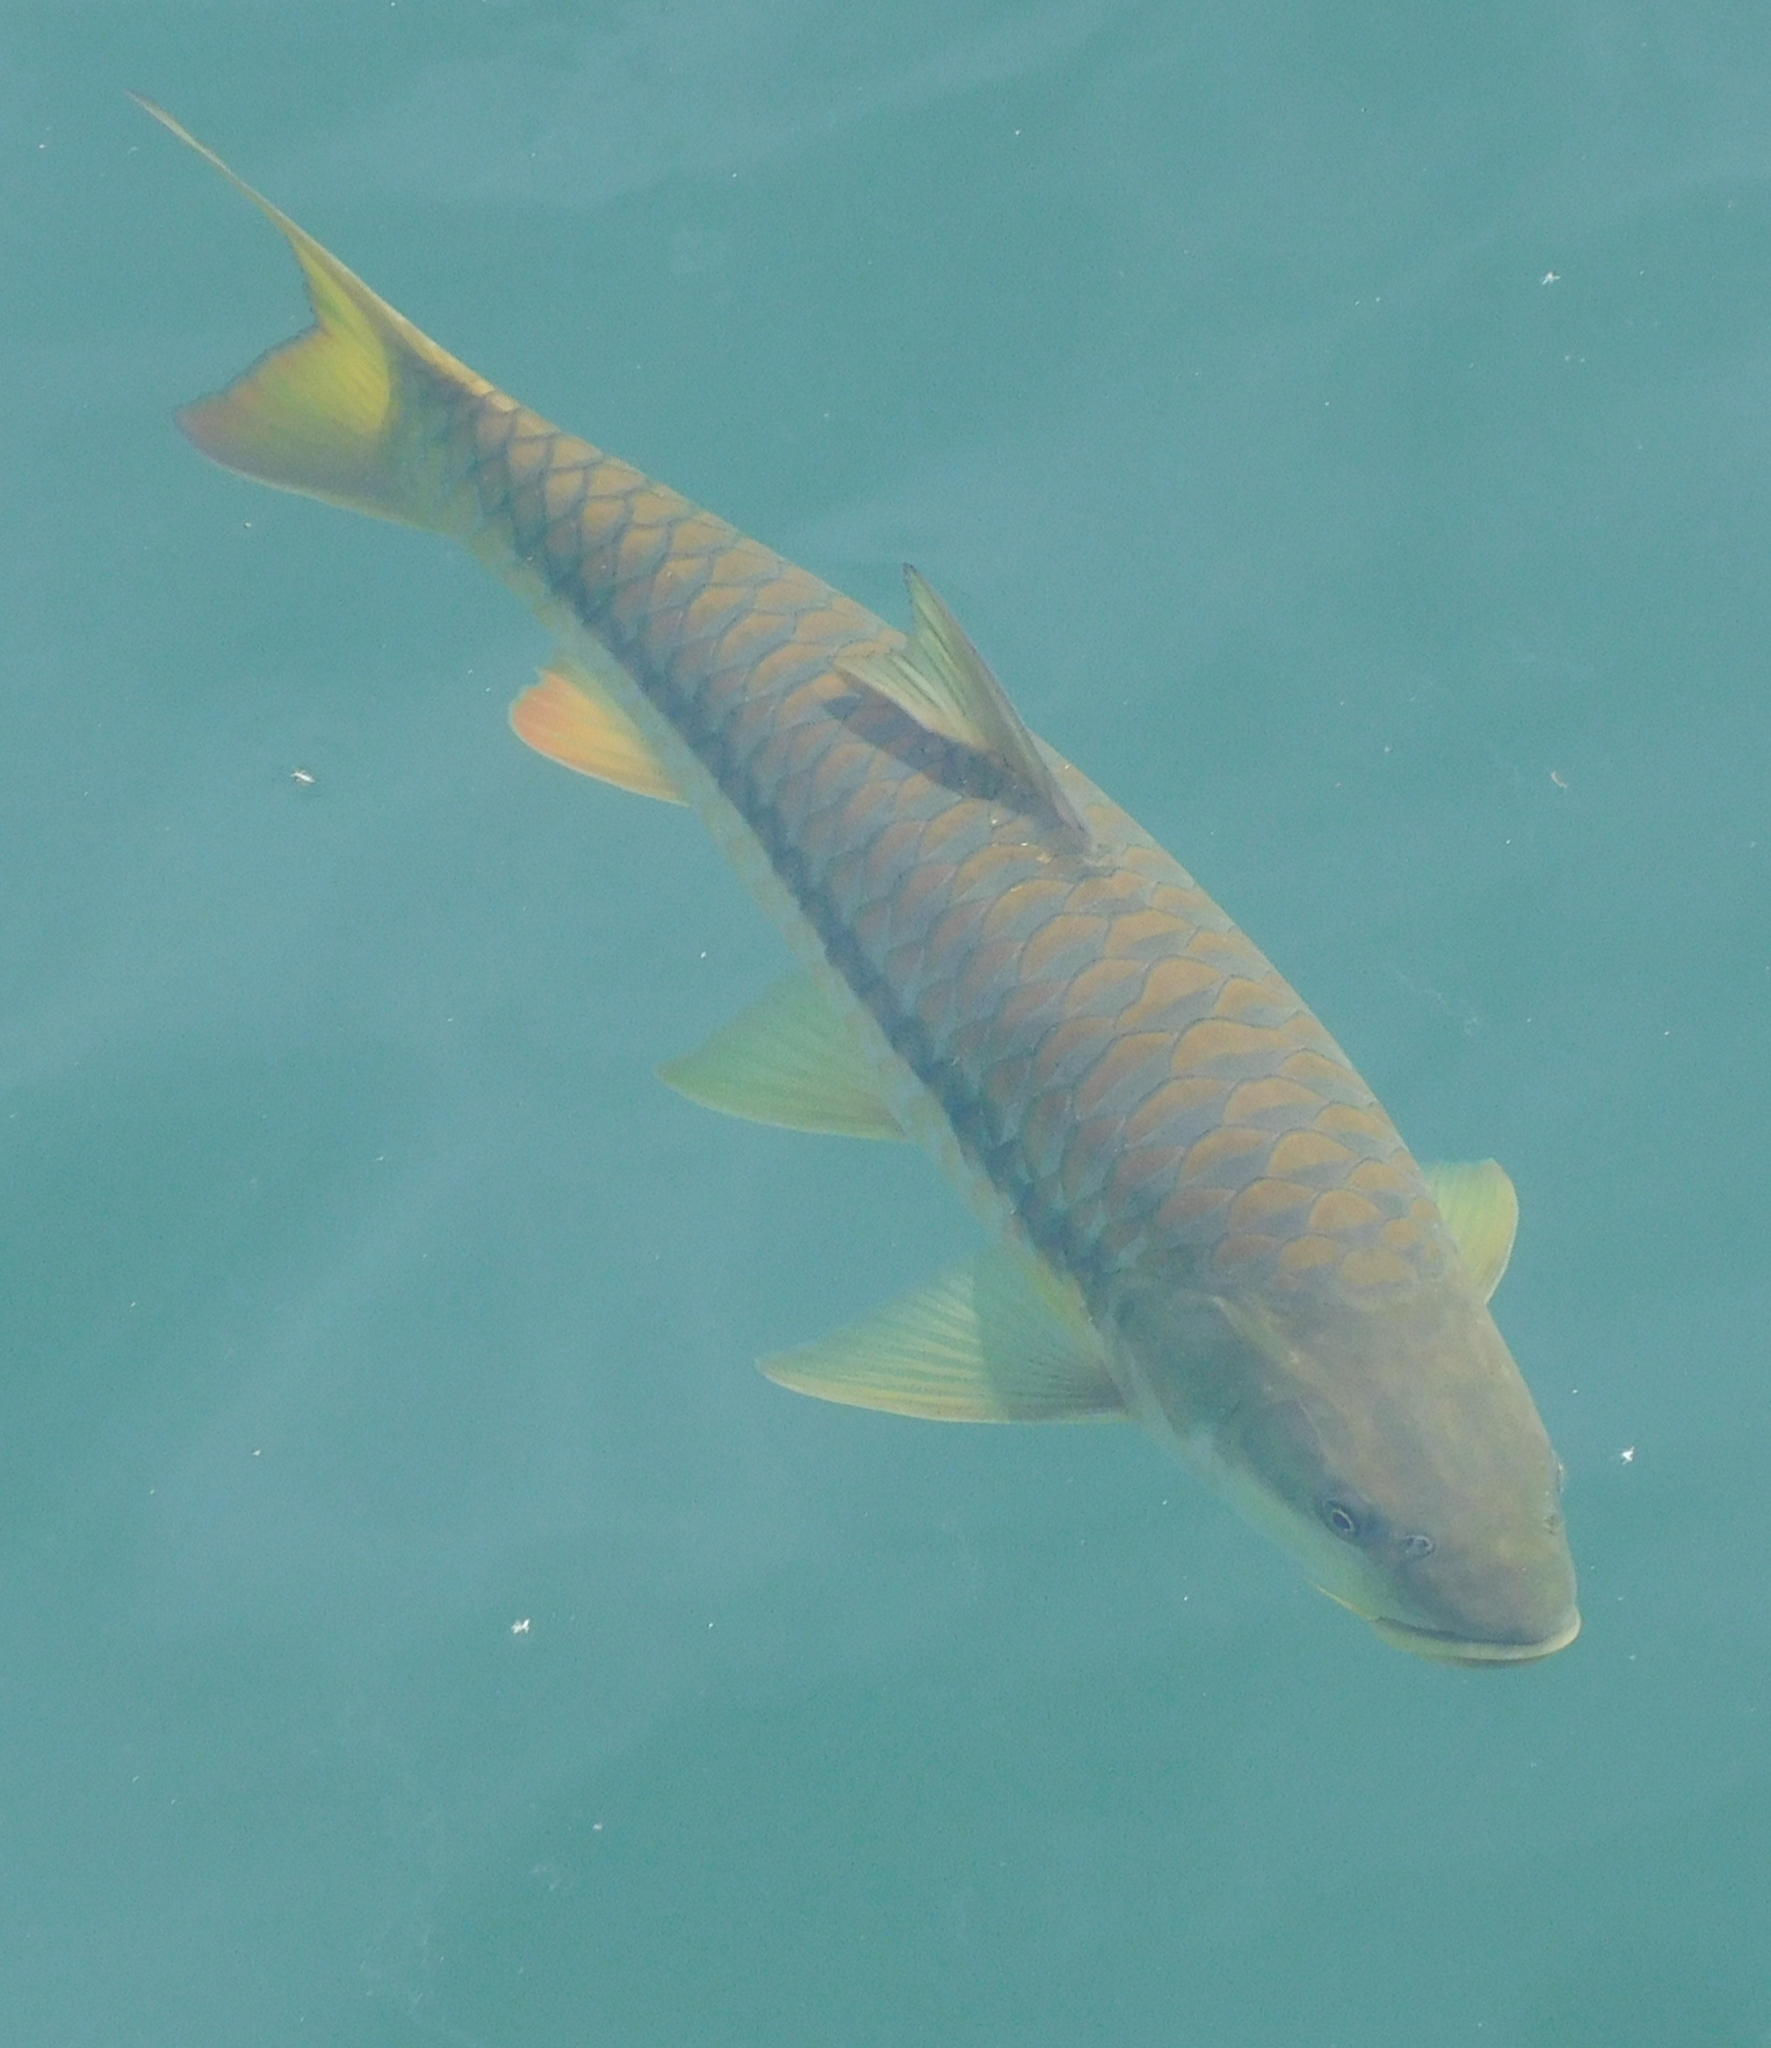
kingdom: Animalia
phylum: Chordata
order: Cypriniformes
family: Cyprinidae
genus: Tor
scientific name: Tor putitora
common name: Putitor mahseer
